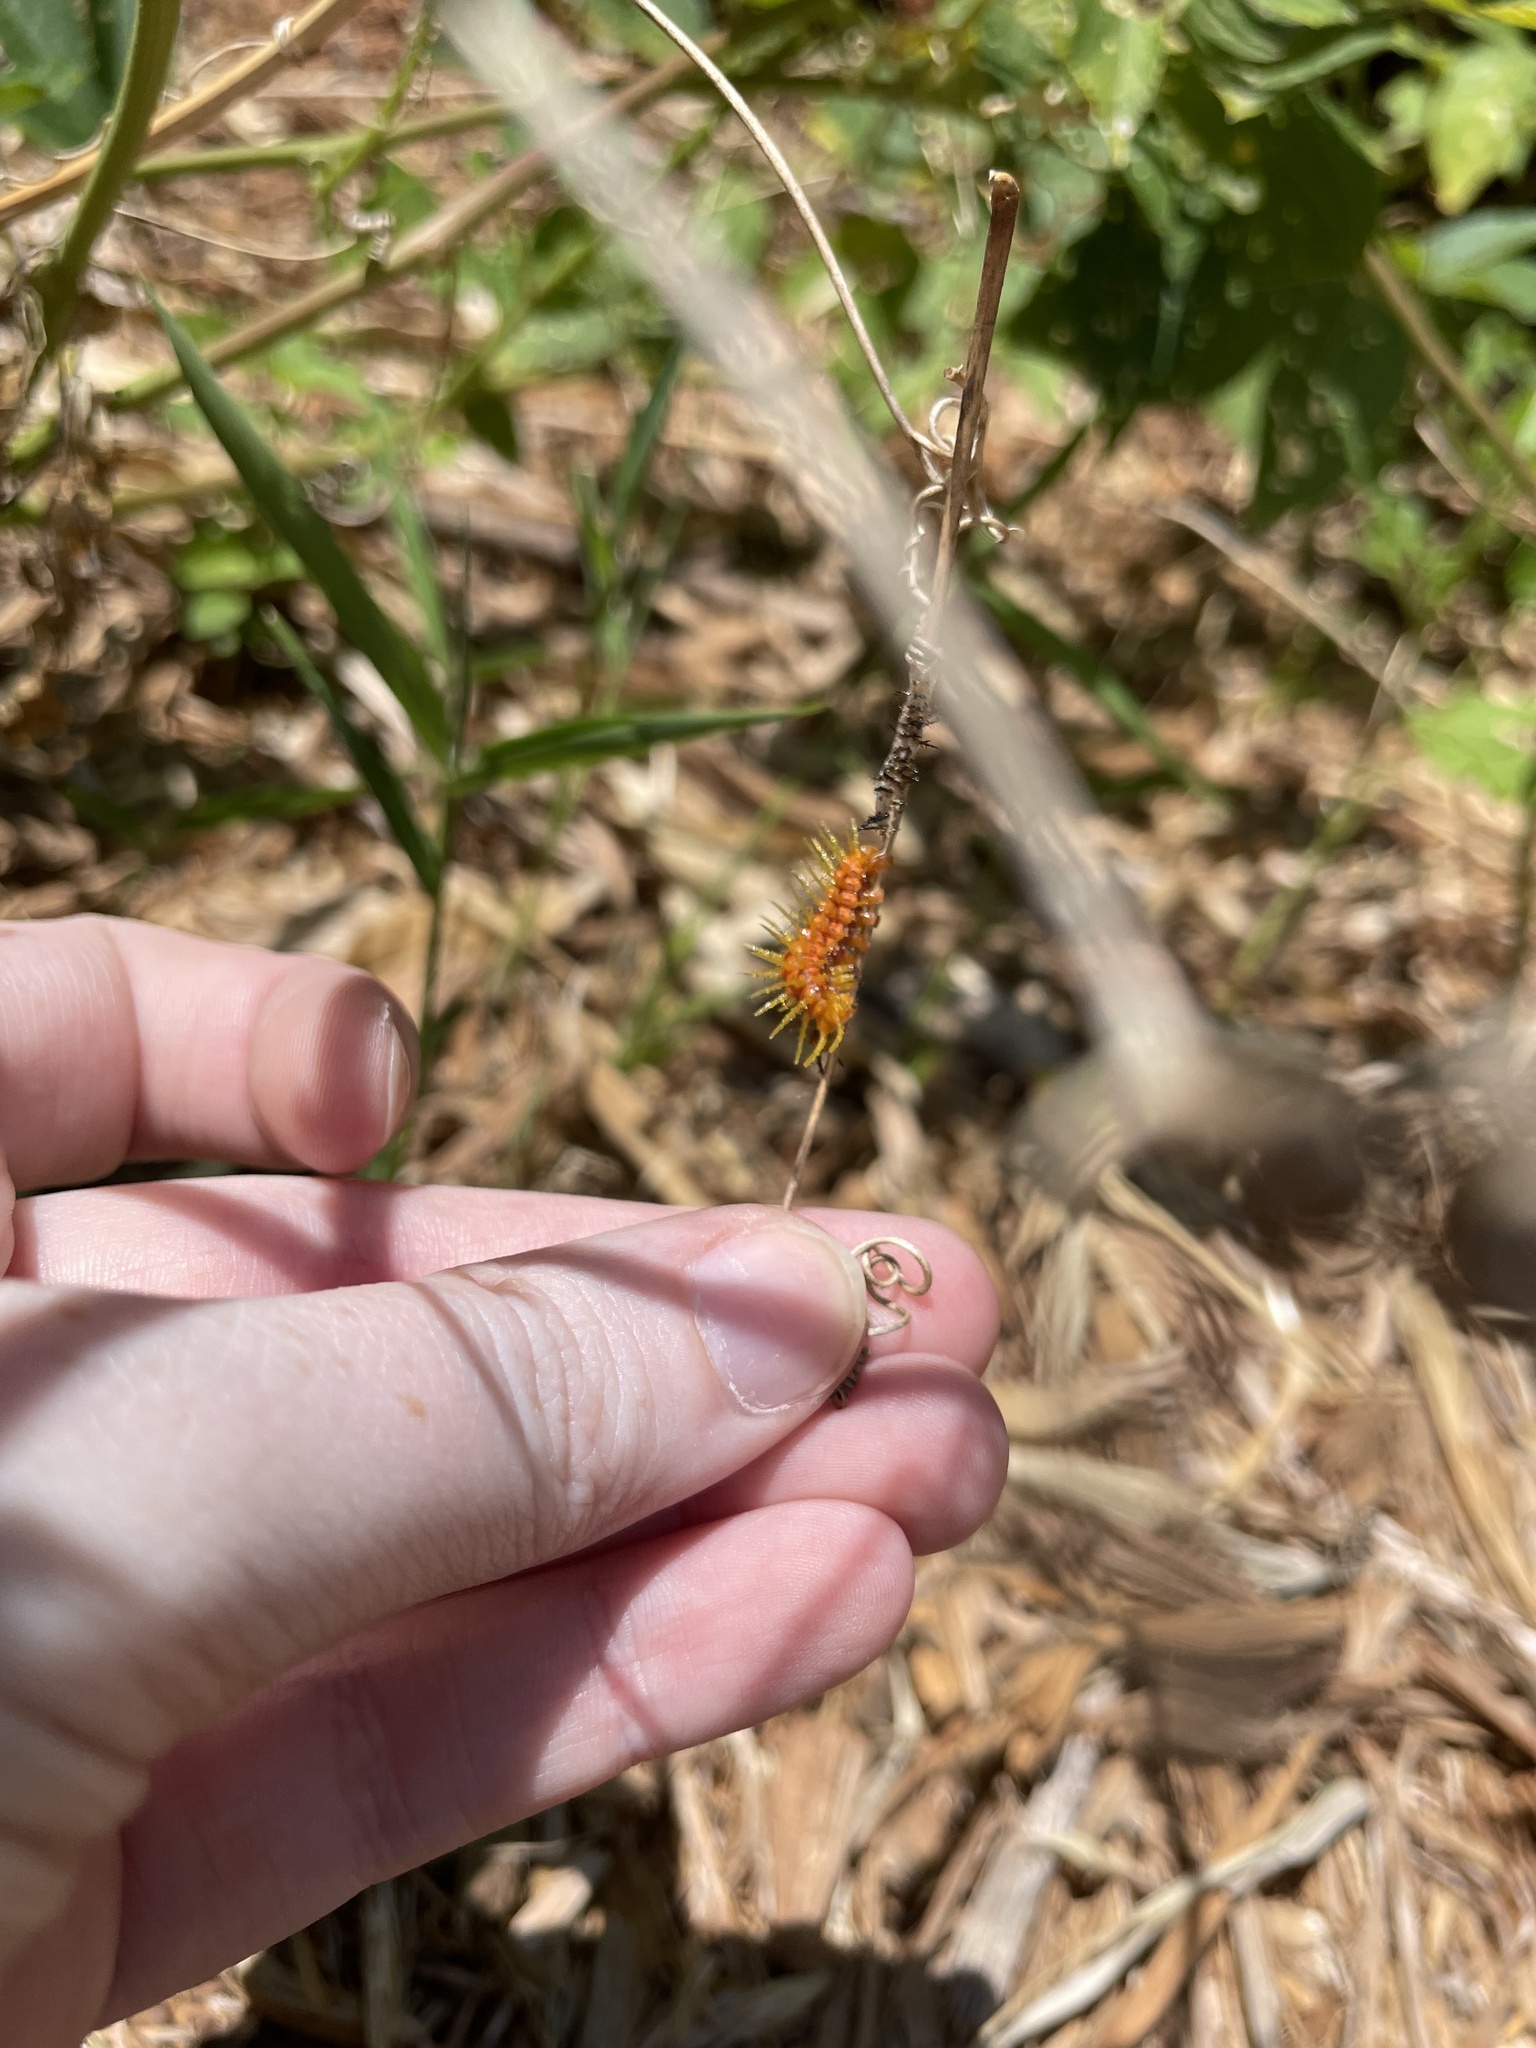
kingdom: Animalia
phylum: Arthropoda
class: Insecta
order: Lepidoptera
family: Nymphalidae
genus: Dione
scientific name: Dione vanillae
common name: Gulf fritillary
